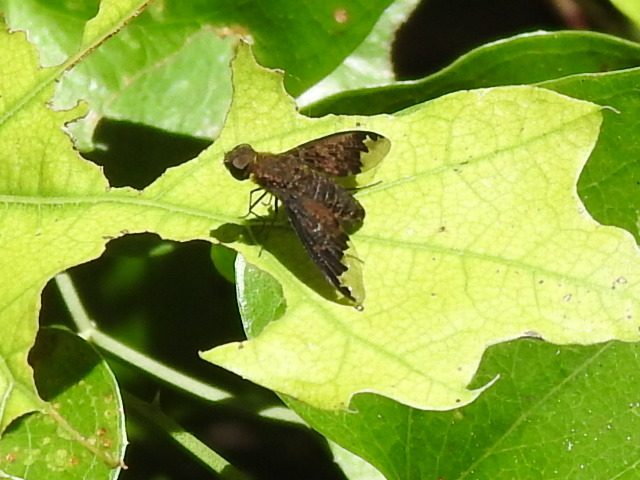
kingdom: Animalia
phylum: Arthropoda
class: Insecta
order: Diptera
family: Bombyliidae
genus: Hemipenthes
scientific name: Hemipenthes sinuosus
